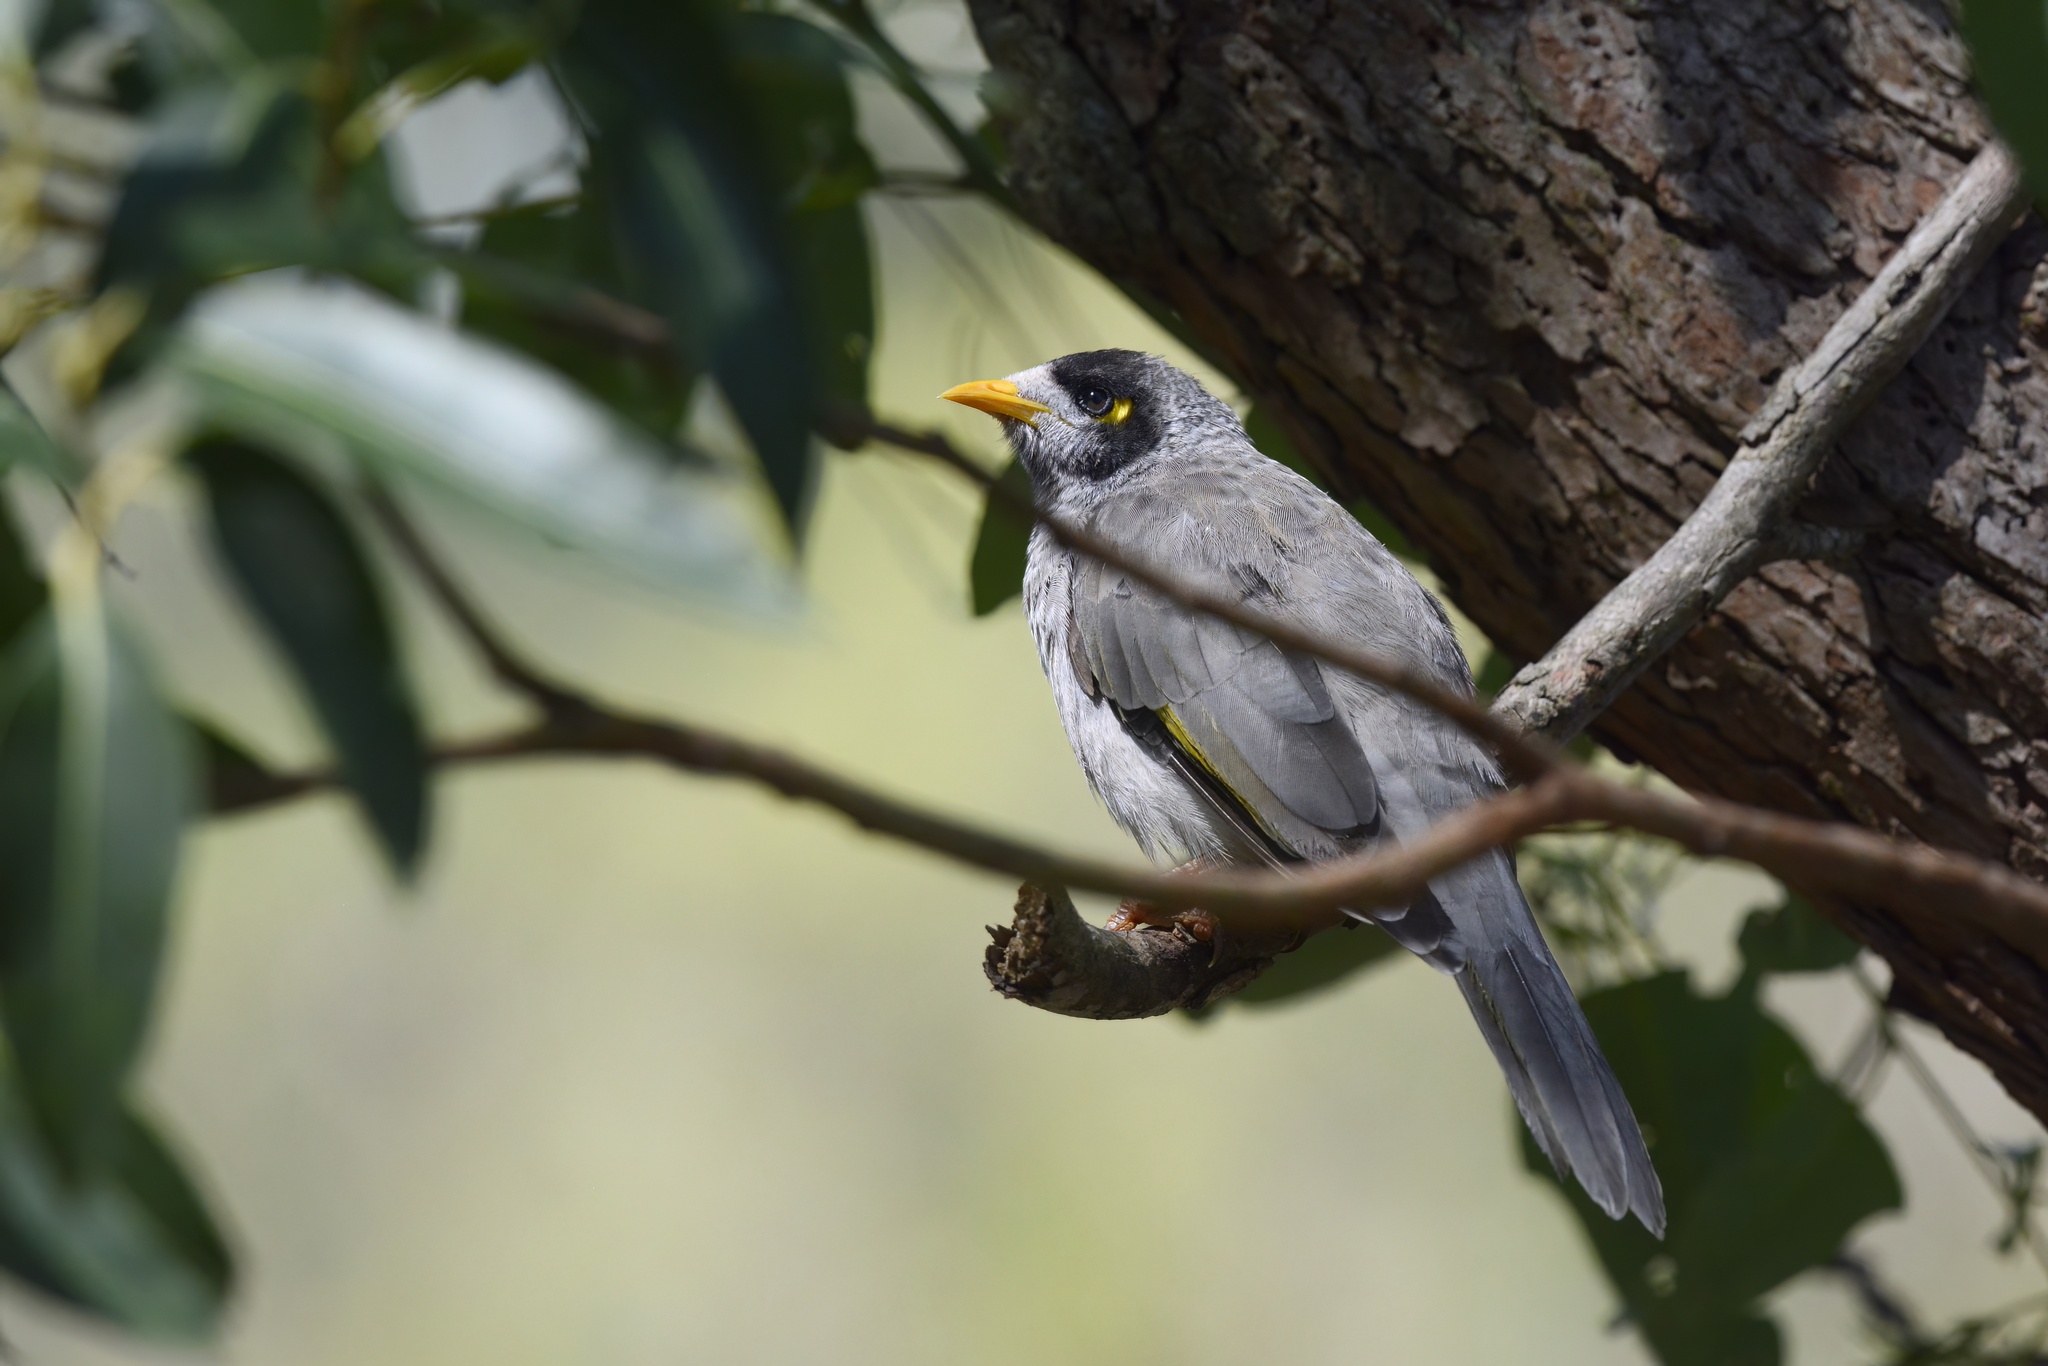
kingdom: Animalia
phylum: Chordata
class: Aves
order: Passeriformes
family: Meliphagidae
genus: Manorina
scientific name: Manorina melanocephala
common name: Noisy miner
